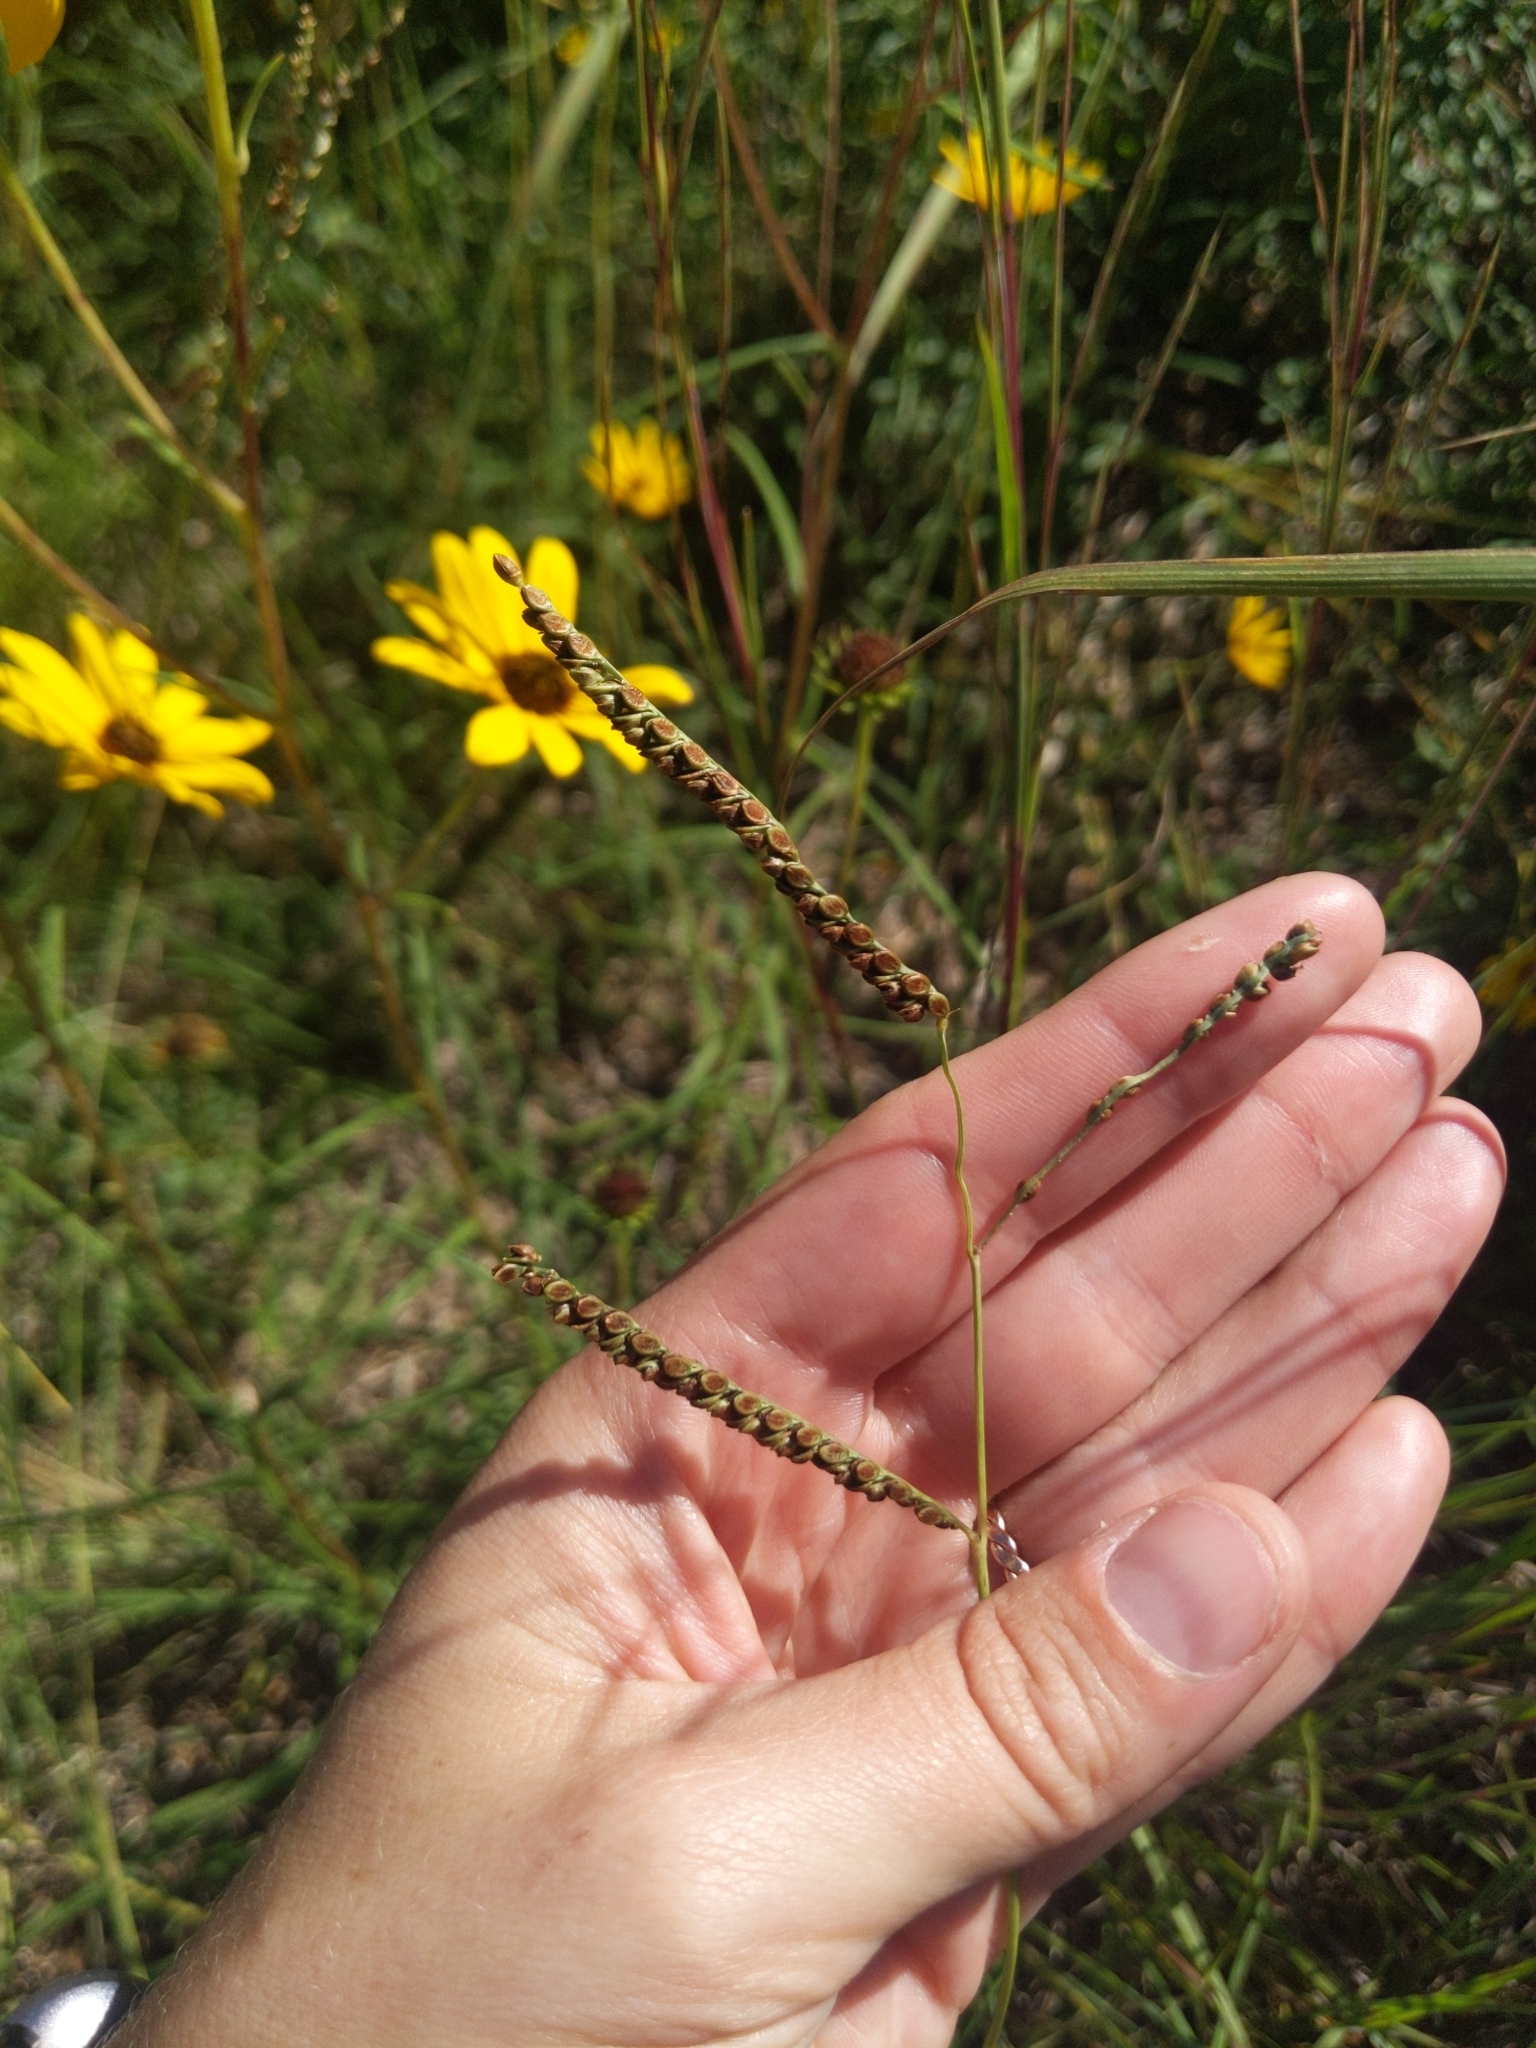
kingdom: Plantae
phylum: Tracheophyta
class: Liliopsida
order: Poales
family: Poaceae
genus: Paspalum
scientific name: Paspalum plicatulum
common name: Top paspalum
